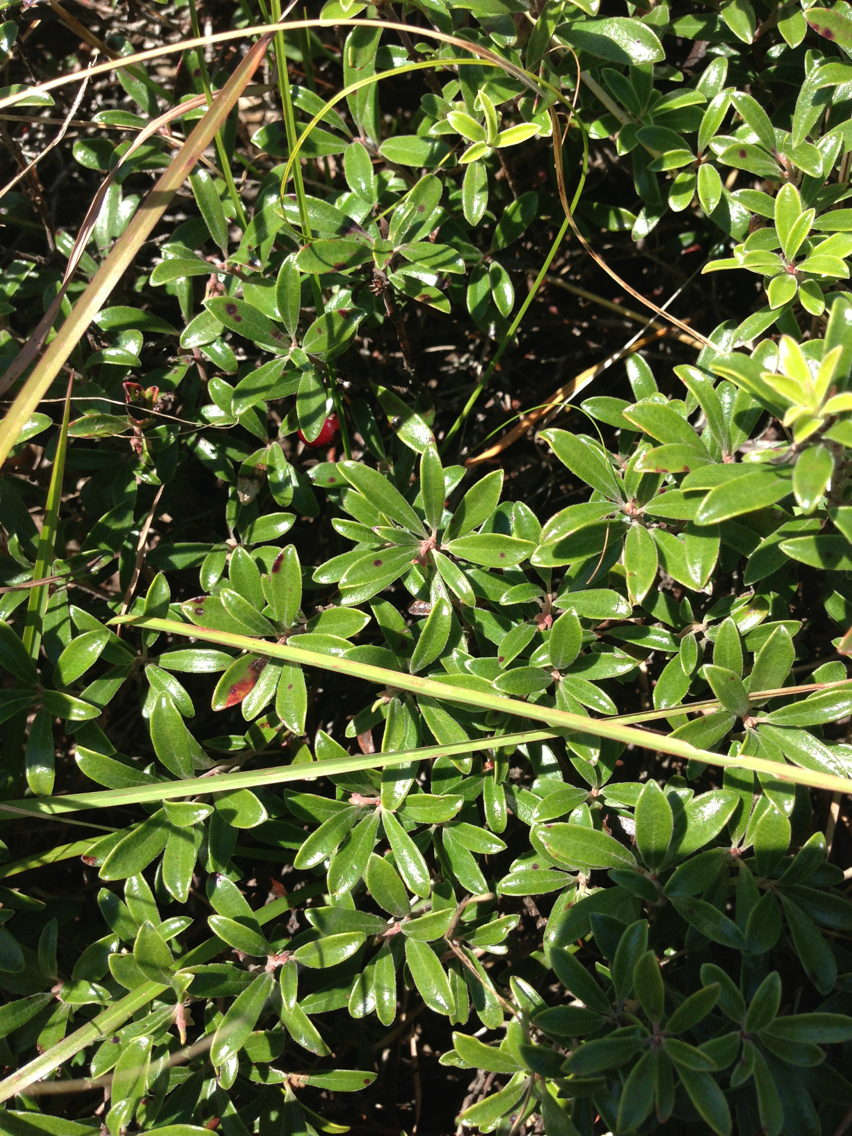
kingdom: Plantae
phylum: Tracheophyta
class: Magnoliopsida
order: Ericales
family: Ericaceae
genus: Arctostaphylos
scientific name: Arctostaphylos uva-ursi
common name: Bearberry
